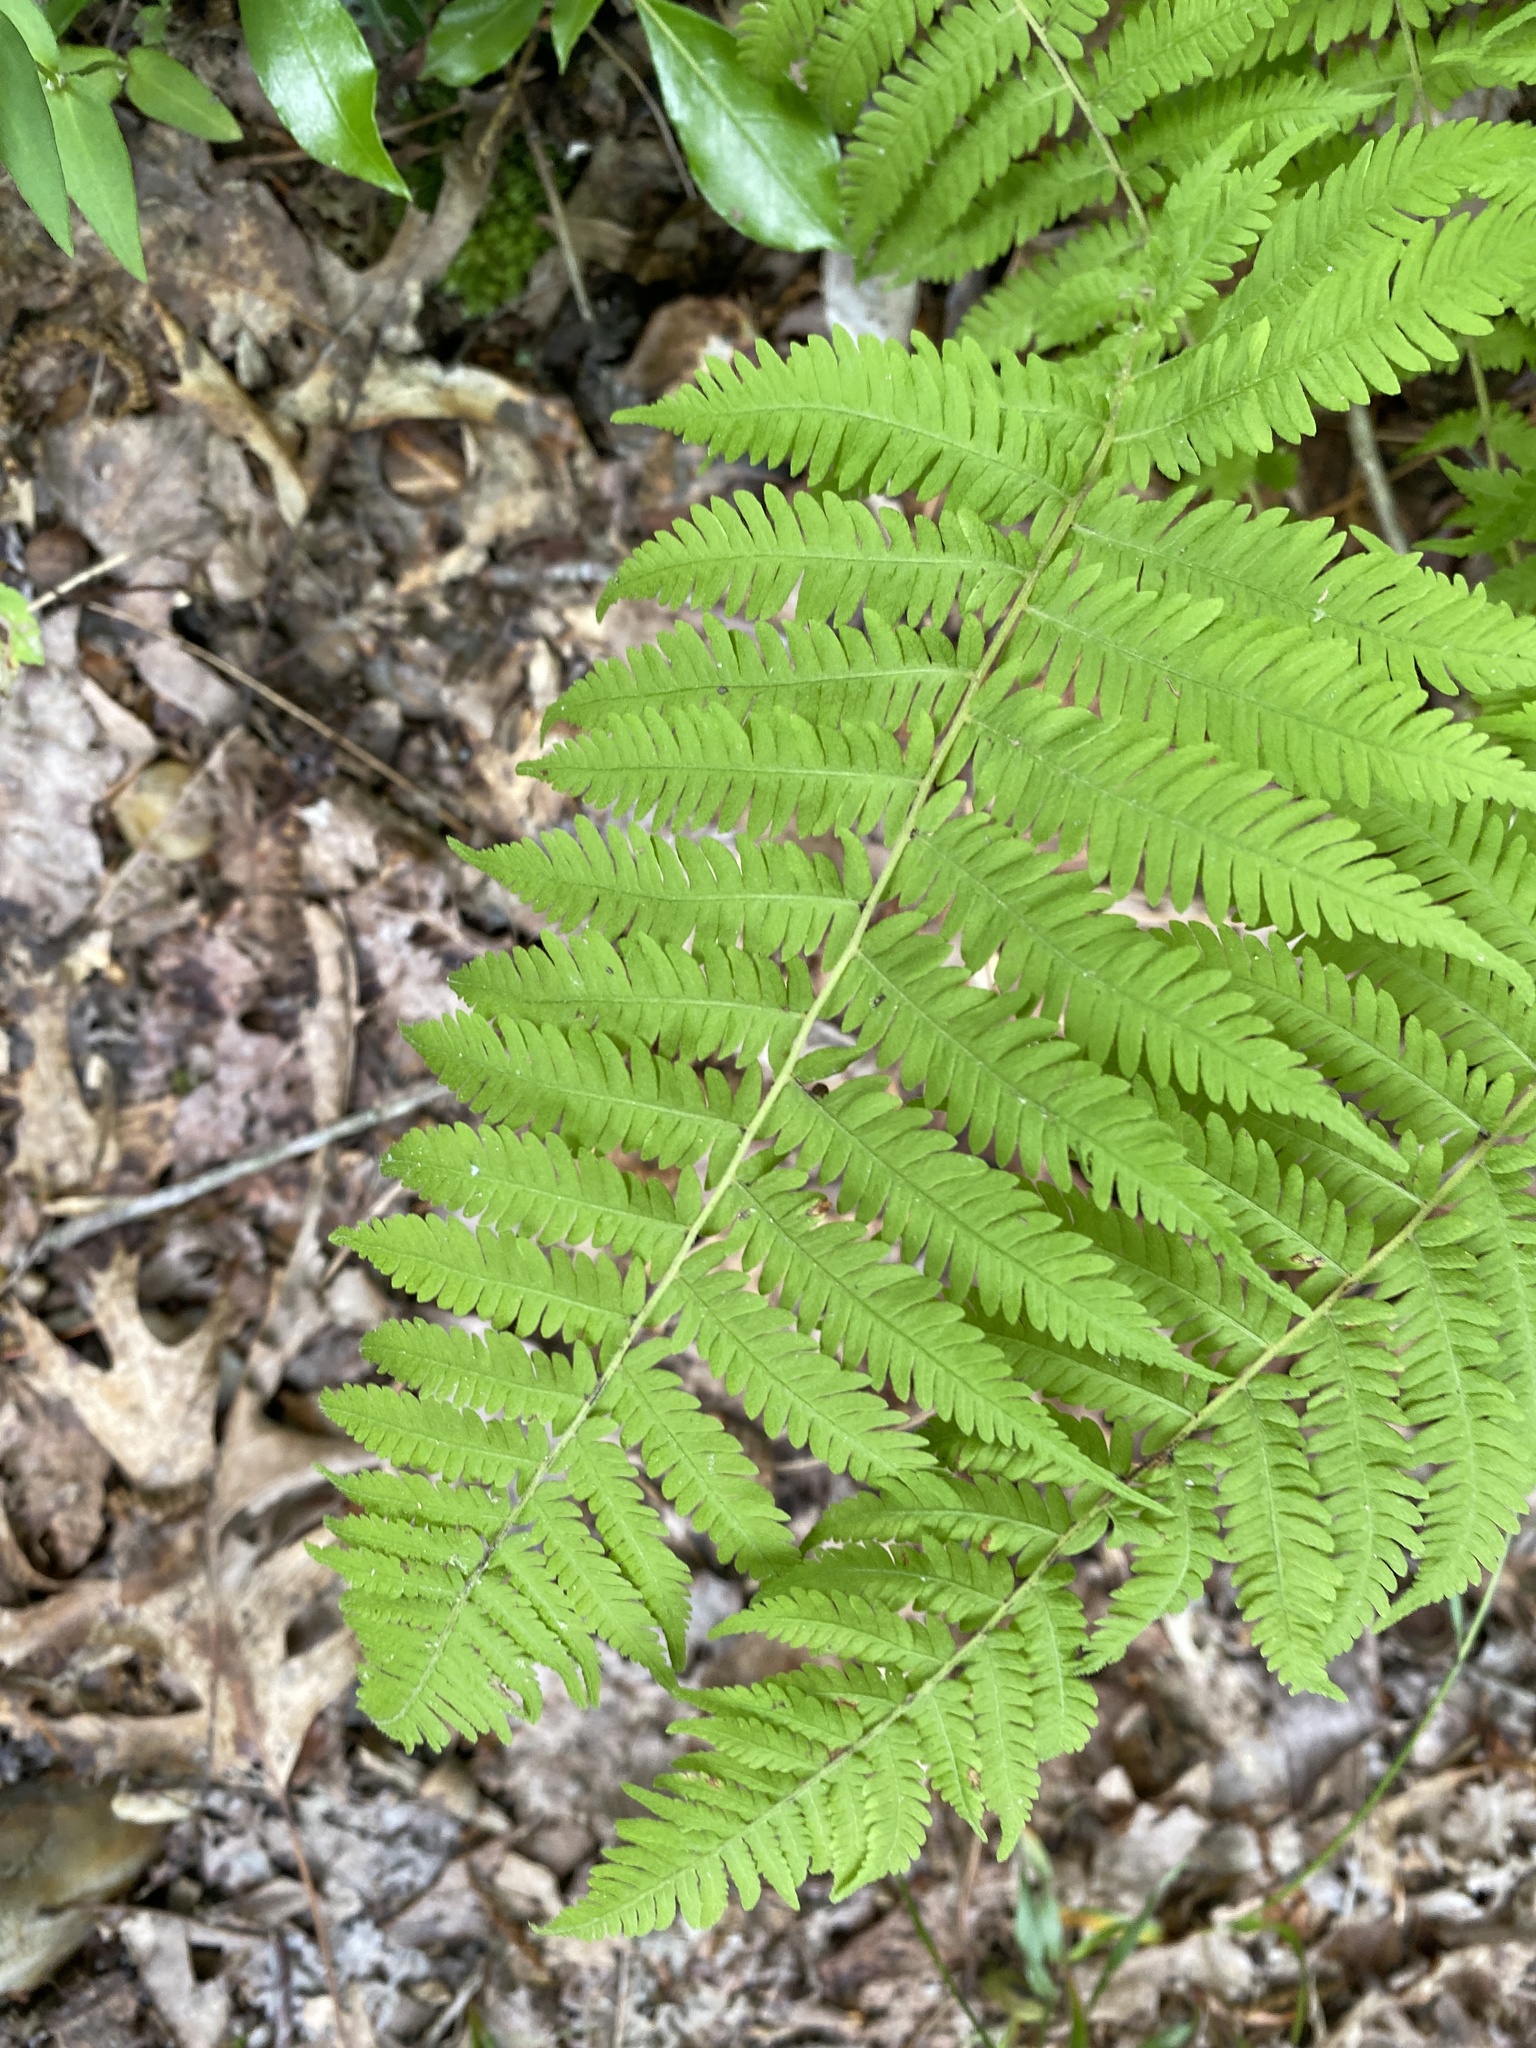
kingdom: Plantae
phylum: Tracheophyta
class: Polypodiopsida
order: Polypodiales
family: Thelypteridaceae
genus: Amauropelta
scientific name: Amauropelta noveboracensis
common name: New york fern
